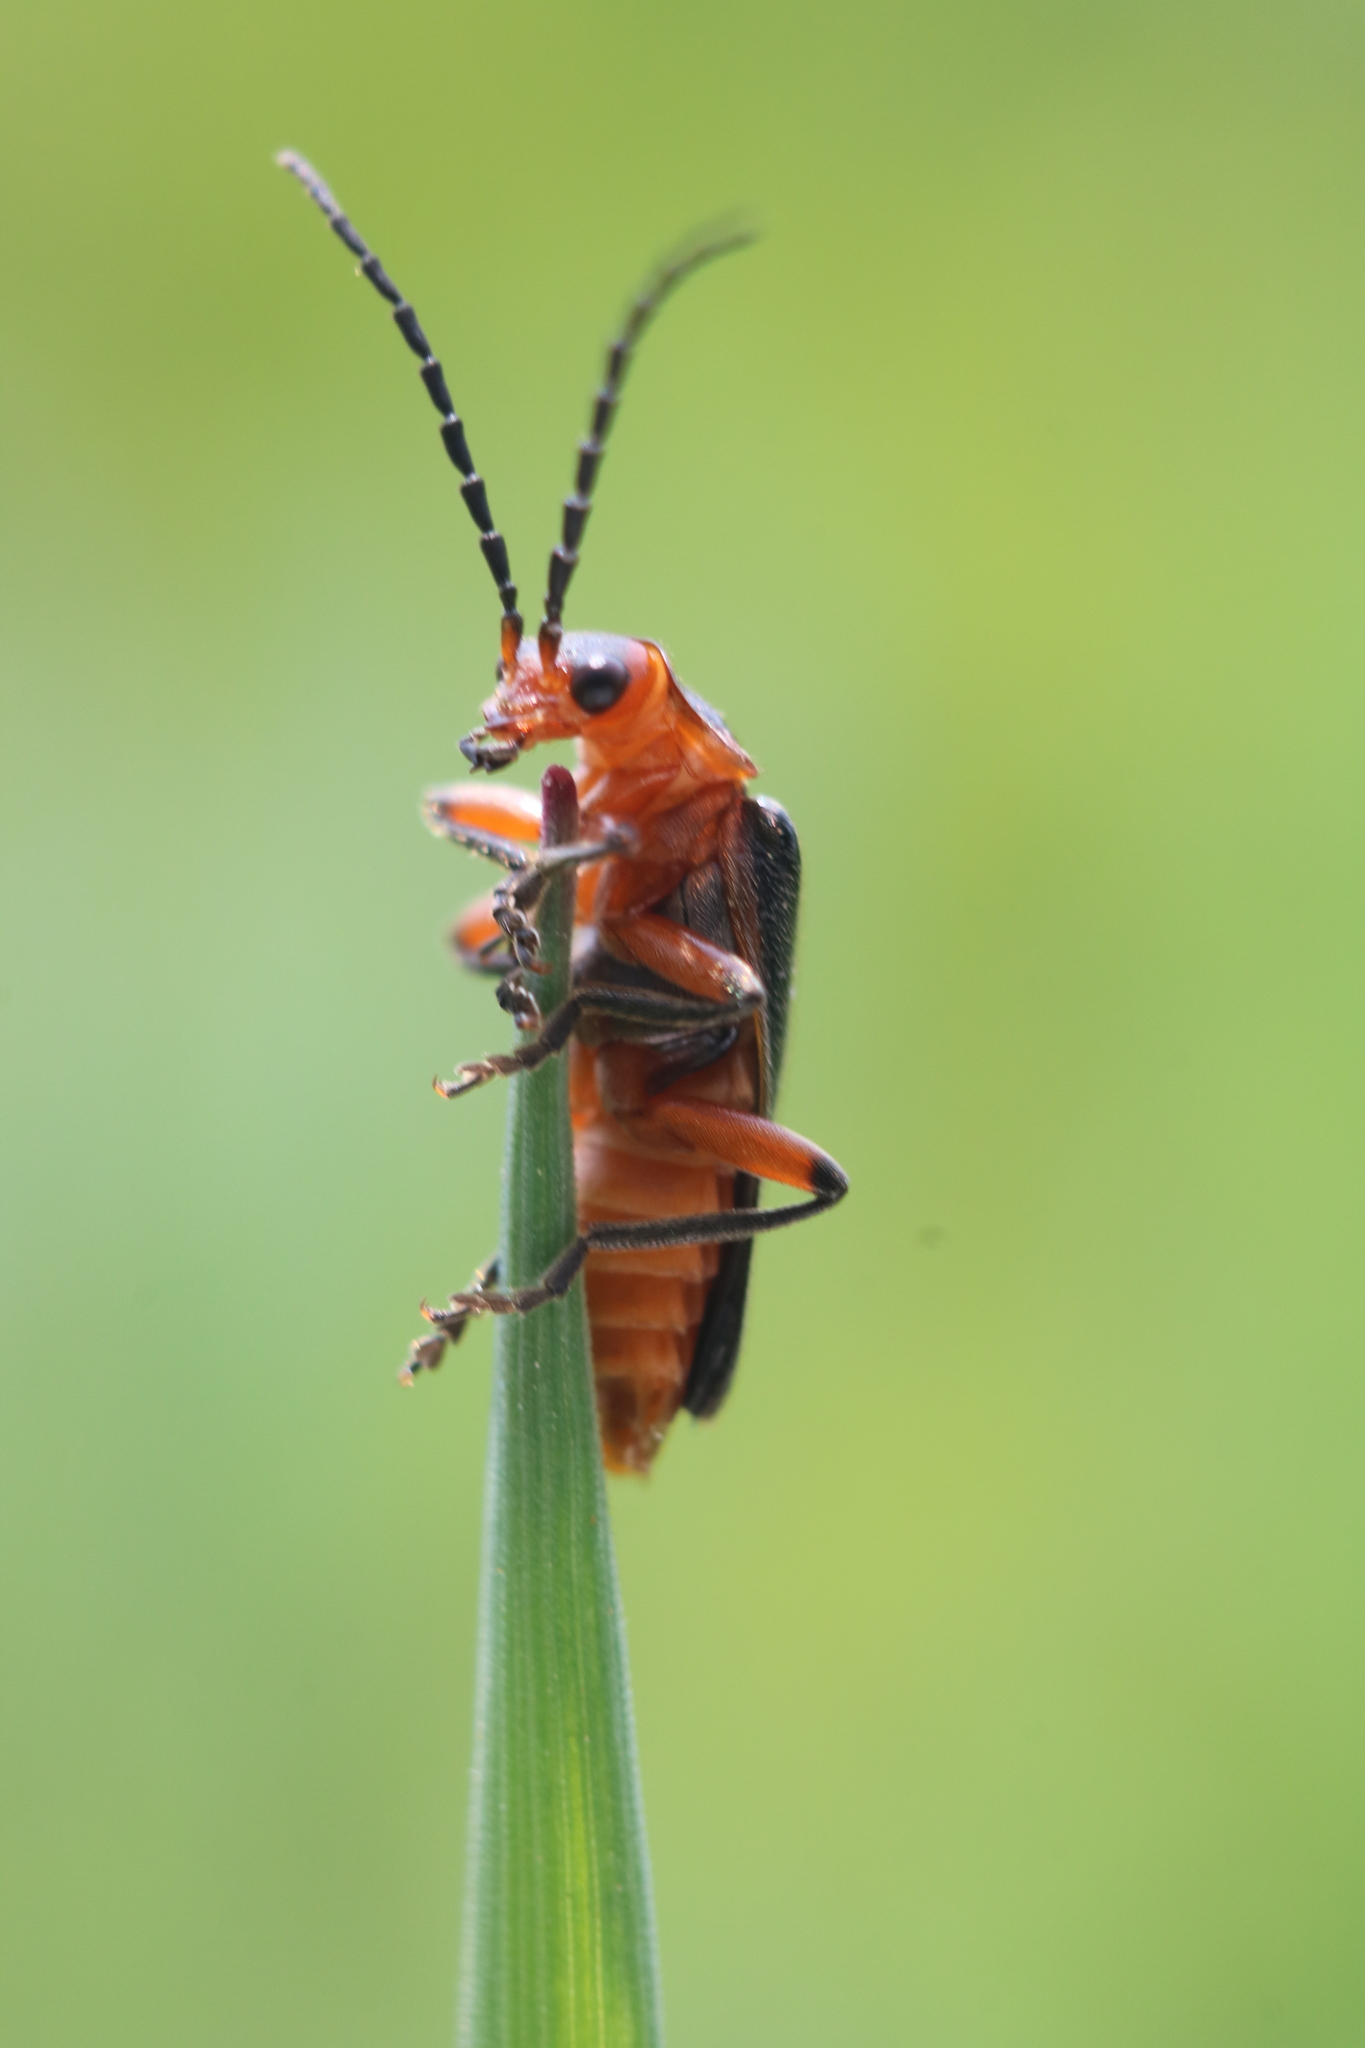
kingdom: Animalia
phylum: Arthropoda
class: Insecta
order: Coleoptera
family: Cantharidae
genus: Atalantycha
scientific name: Atalantycha bilineata
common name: Two-lined leatherwing
